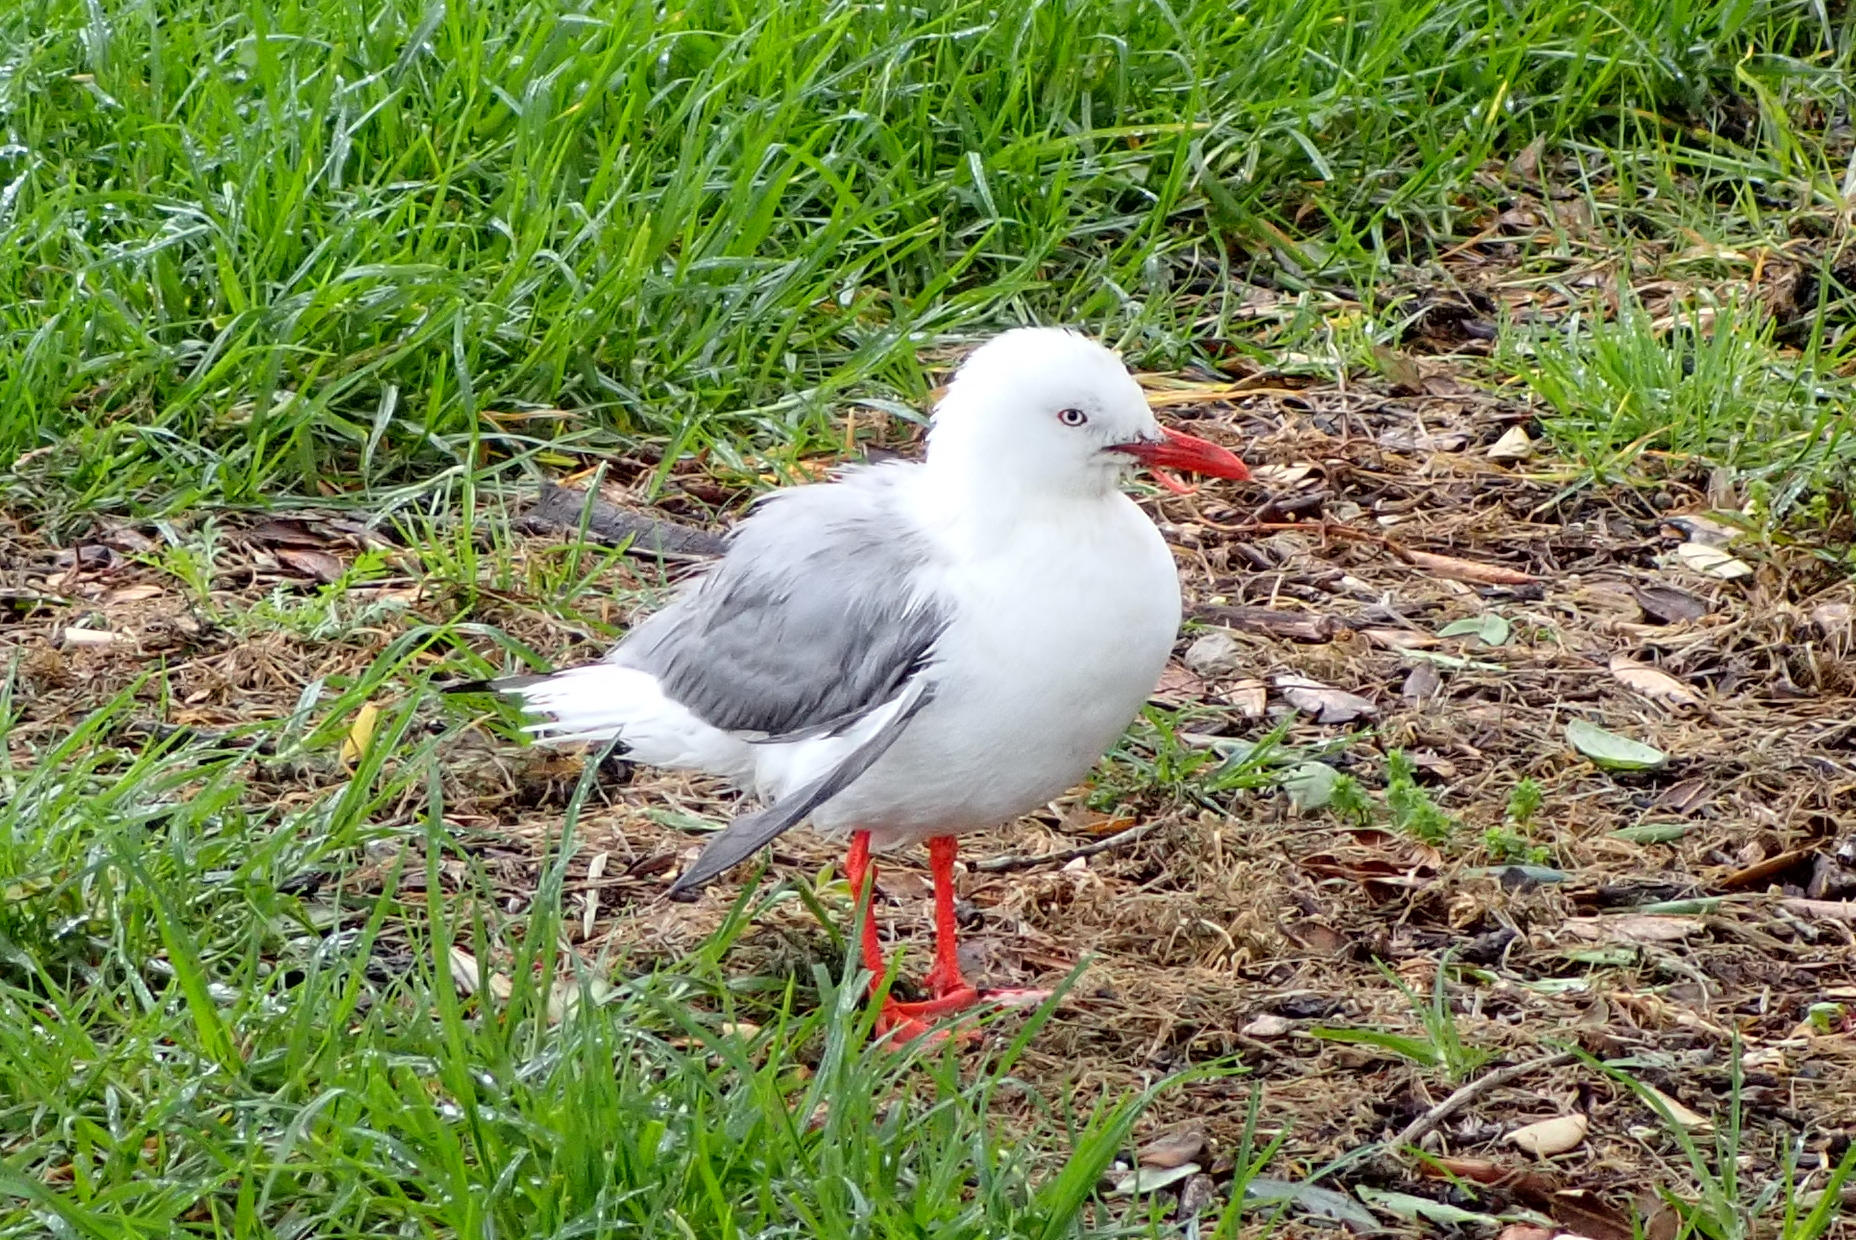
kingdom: Animalia
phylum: Chordata
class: Aves
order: Charadriiformes
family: Laridae
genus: Chroicocephalus
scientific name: Chroicocephalus novaehollandiae
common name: Silver gull
